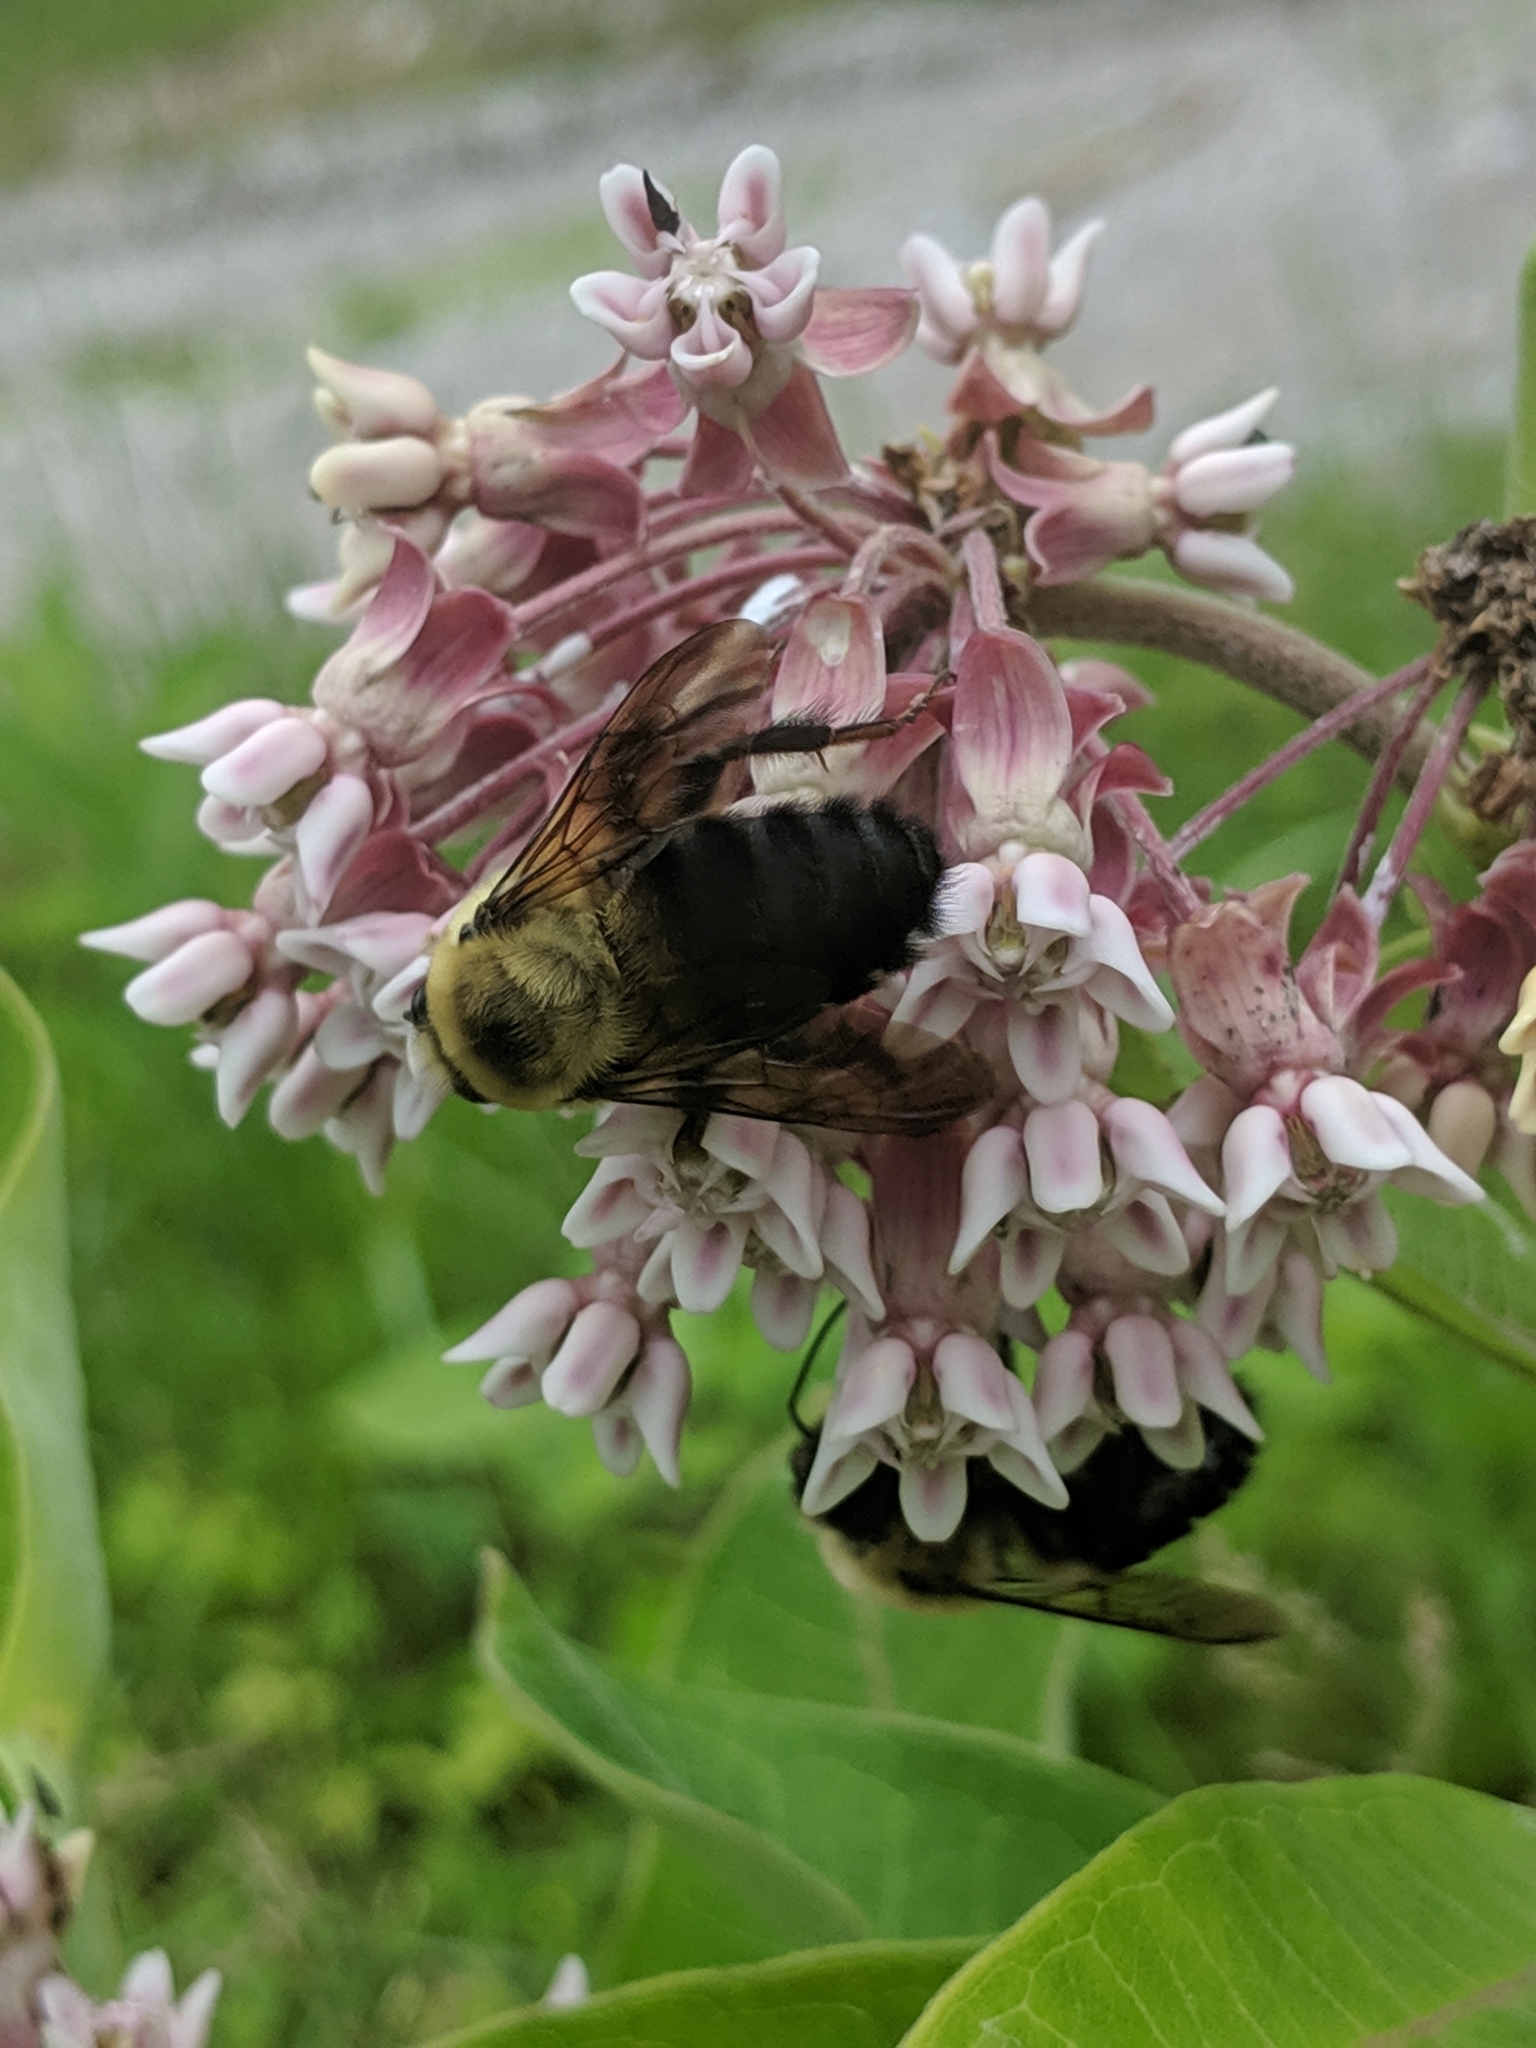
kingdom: Animalia
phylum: Arthropoda
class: Insecta
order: Hymenoptera
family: Apidae
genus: Bombus
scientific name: Bombus griseocollis
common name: Brown-belted bumble bee
